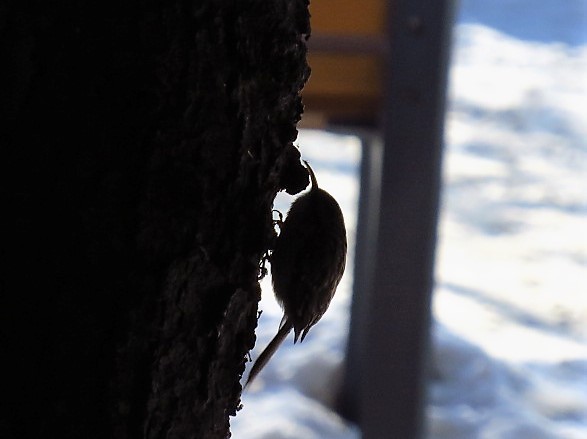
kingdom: Animalia
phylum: Chordata
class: Aves
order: Passeriformes
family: Certhiidae
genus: Certhia
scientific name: Certhia familiaris
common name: Eurasian treecreeper
